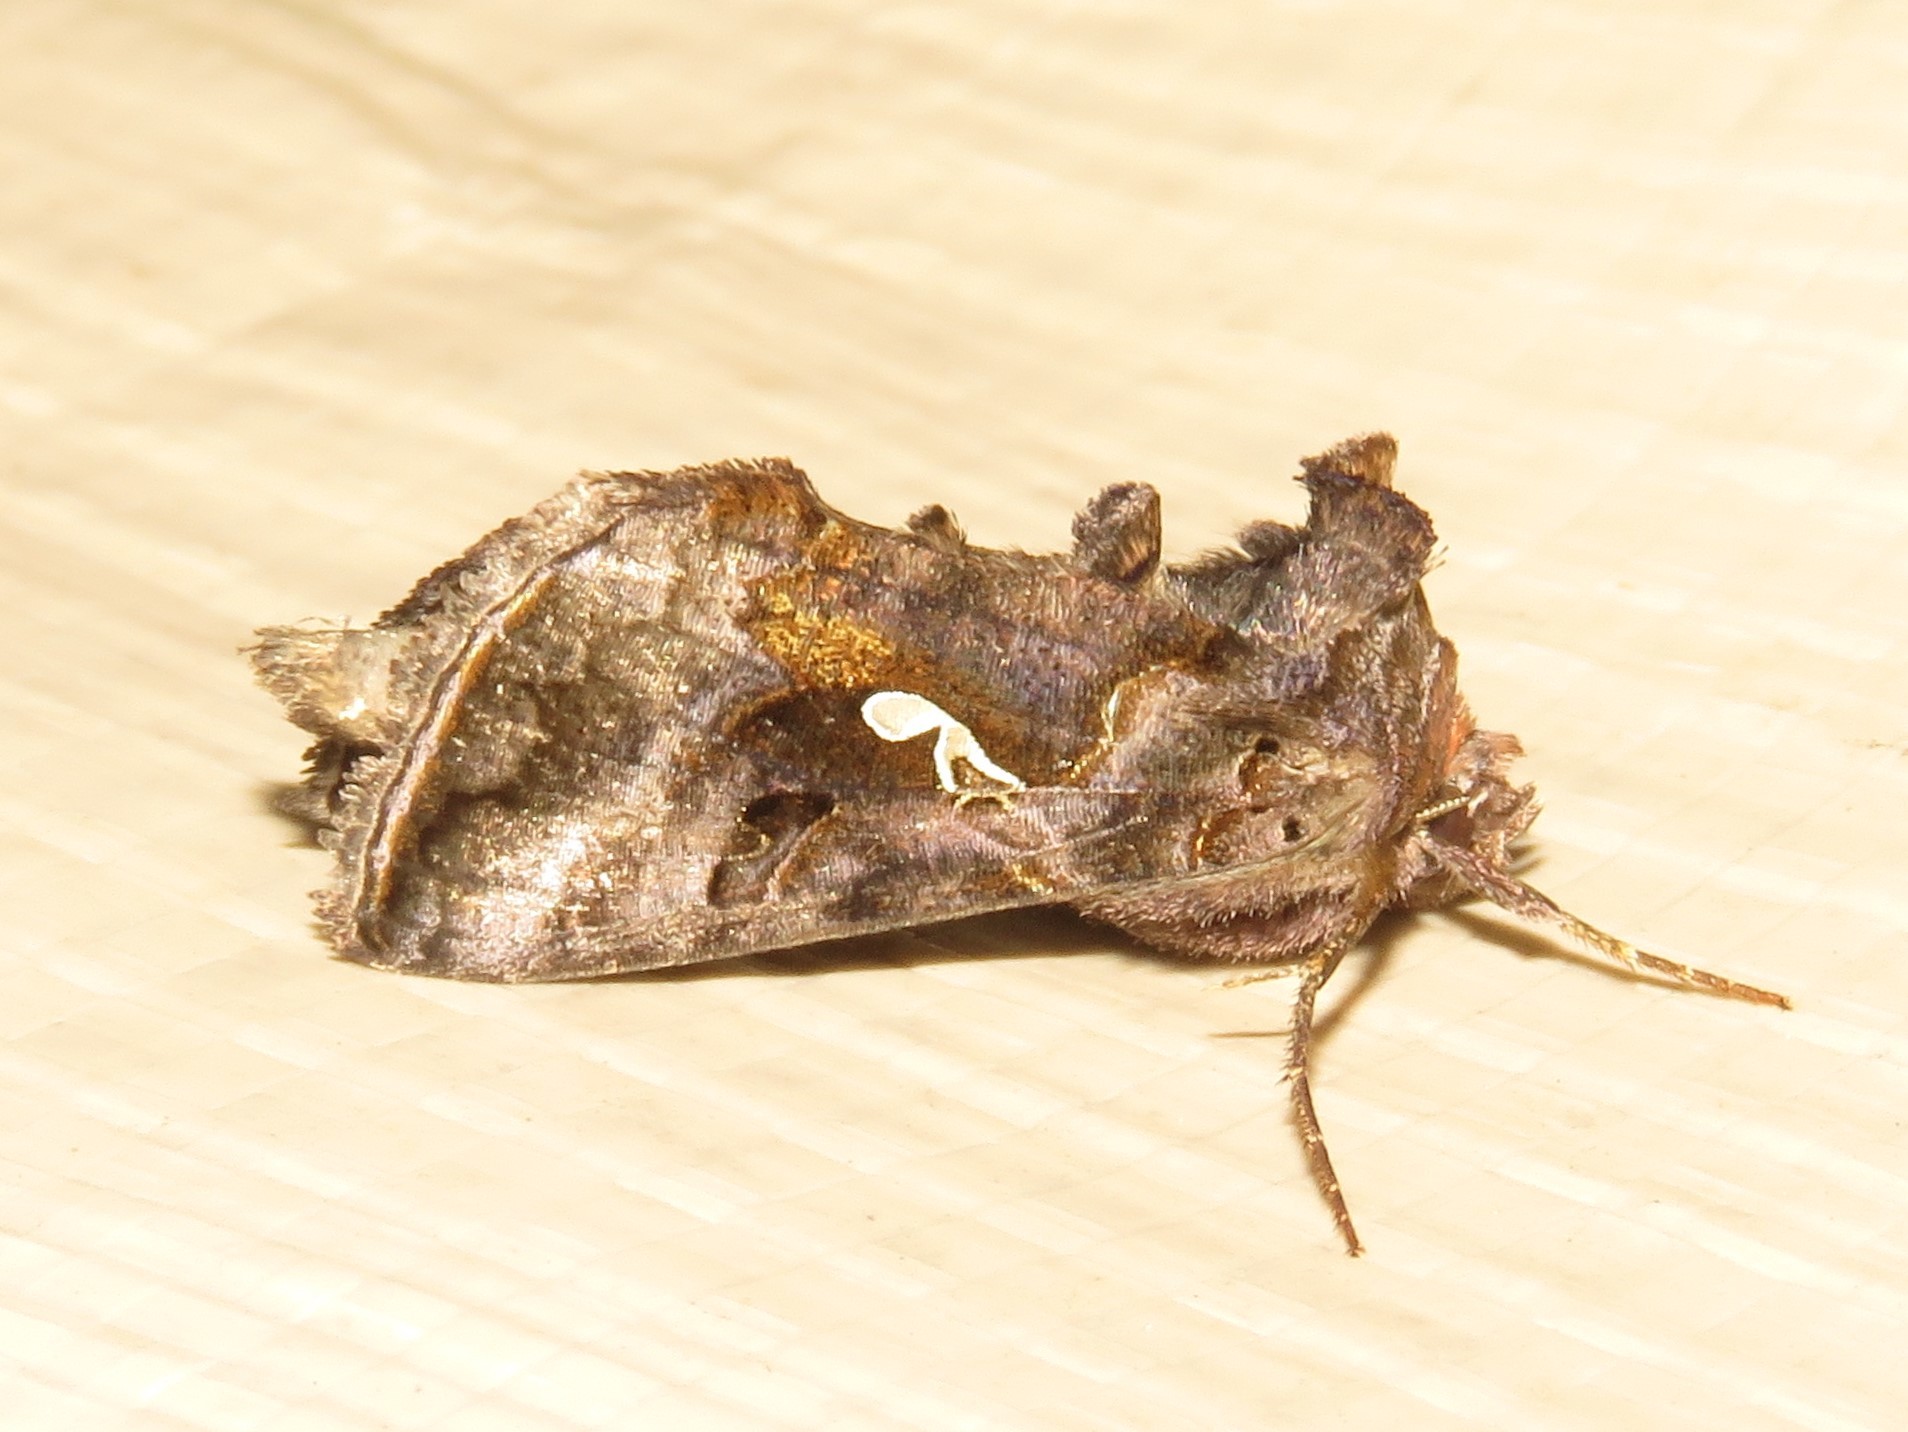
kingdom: Animalia
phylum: Arthropoda
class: Insecta
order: Lepidoptera
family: Noctuidae
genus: Autographa
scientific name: Autographa precationis
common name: Common looper moth
